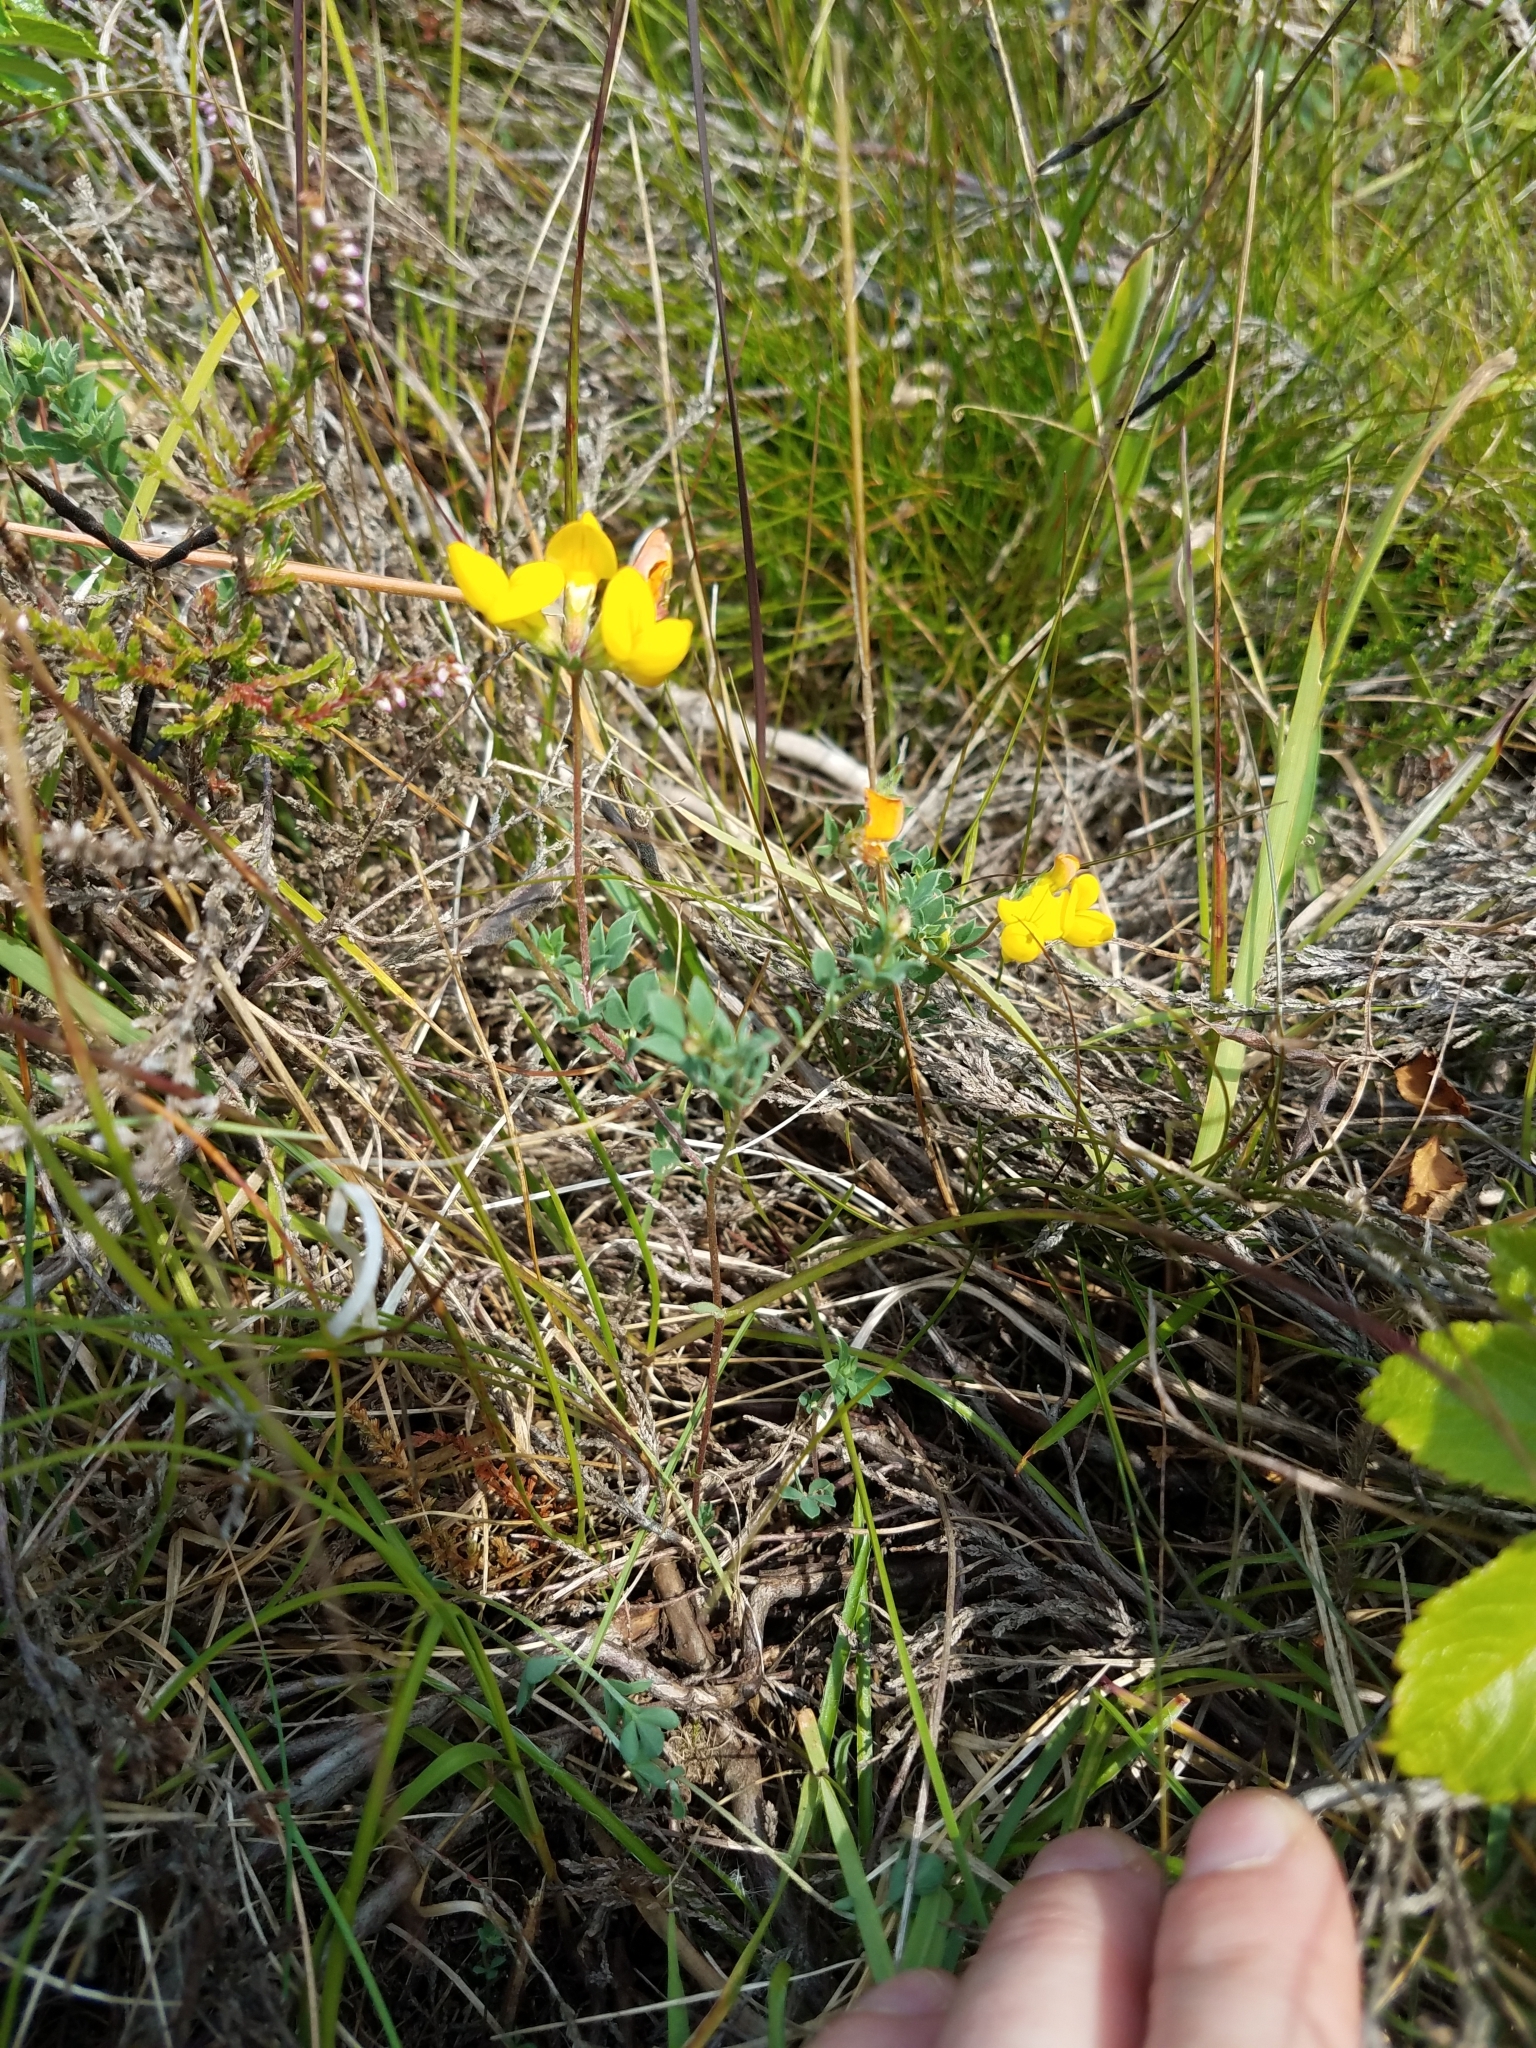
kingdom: Plantae
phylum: Tracheophyta
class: Magnoliopsida
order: Fabales
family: Fabaceae
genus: Lotus
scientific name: Lotus corniculatus
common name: Common bird's-foot-trefoil
